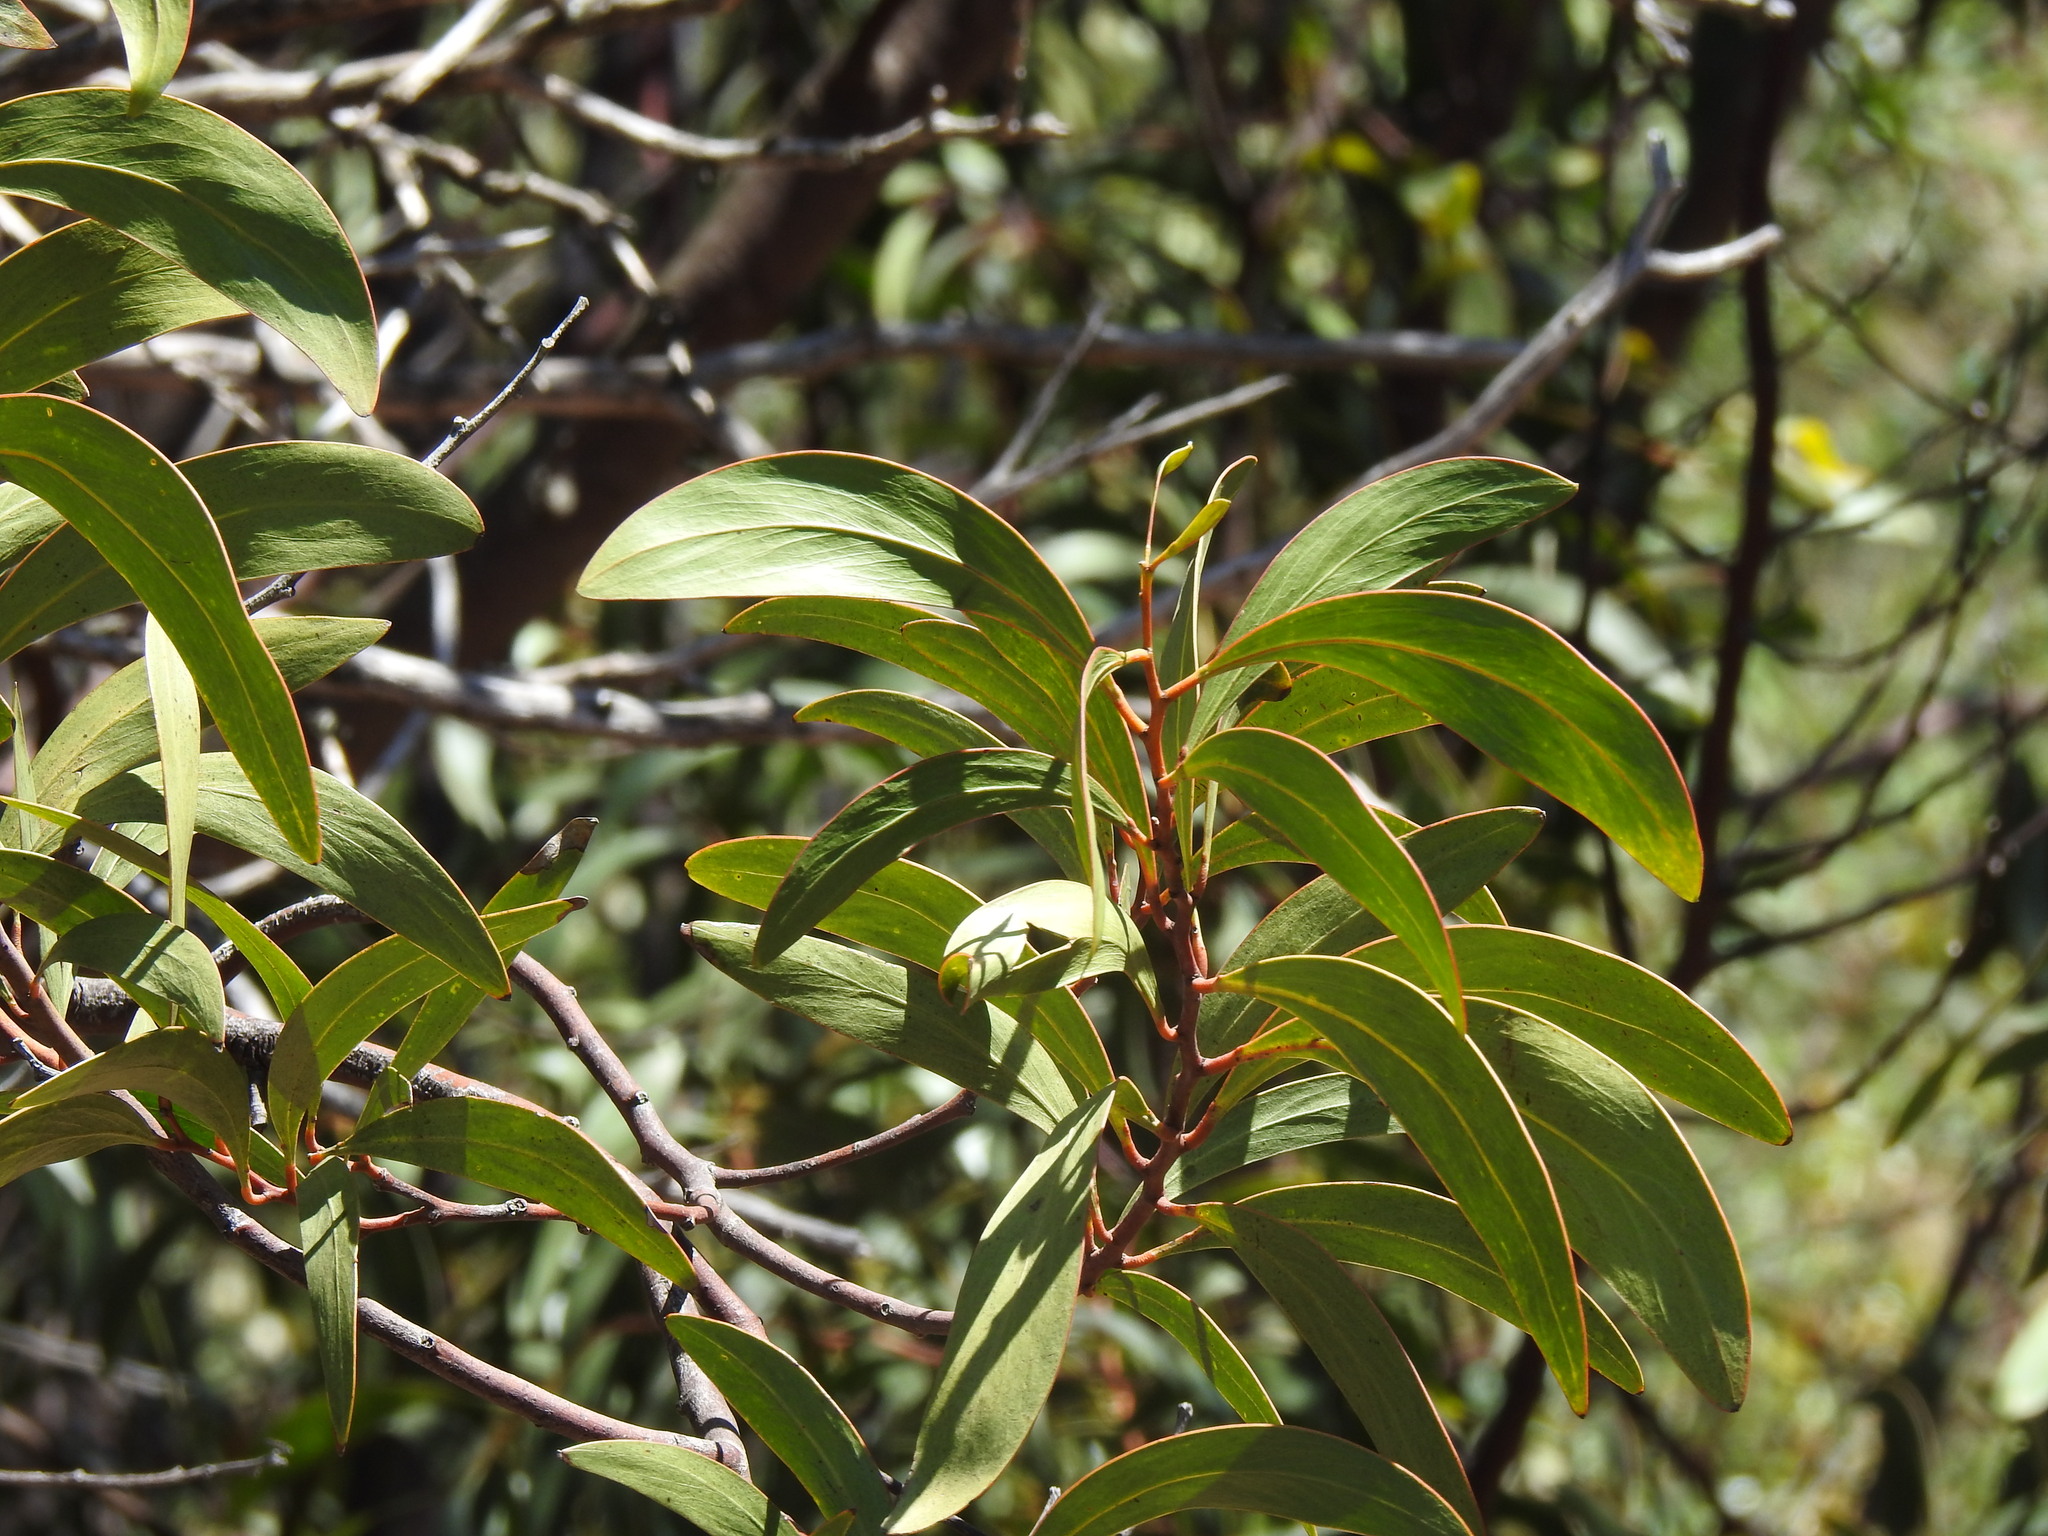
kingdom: Plantae
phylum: Tracheophyta
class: Magnoliopsida
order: Fabales
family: Fabaceae
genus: Acacia
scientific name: Acacia pycnantha
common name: Golden wattle
